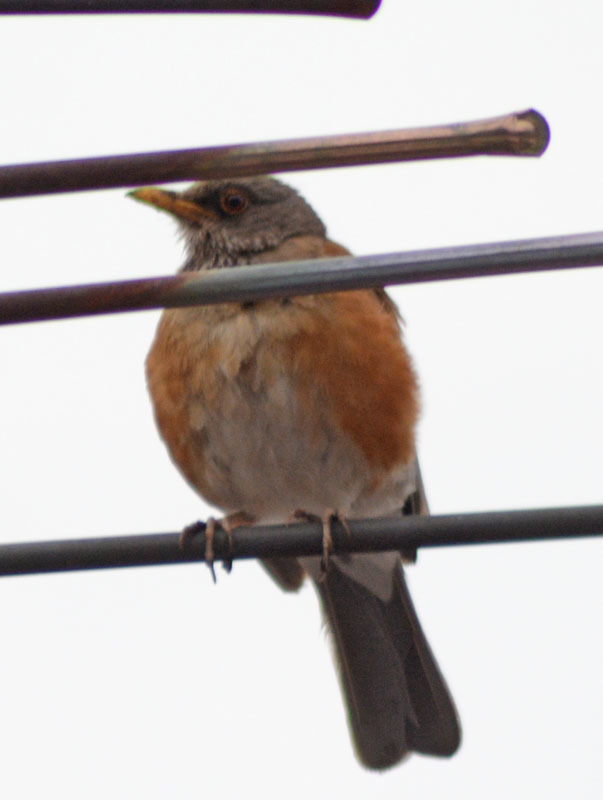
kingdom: Animalia
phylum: Chordata
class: Aves
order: Passeriformes
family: Turdidae
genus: Turdus
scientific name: Turdus rufopalliatus
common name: Rufous-backed robin
